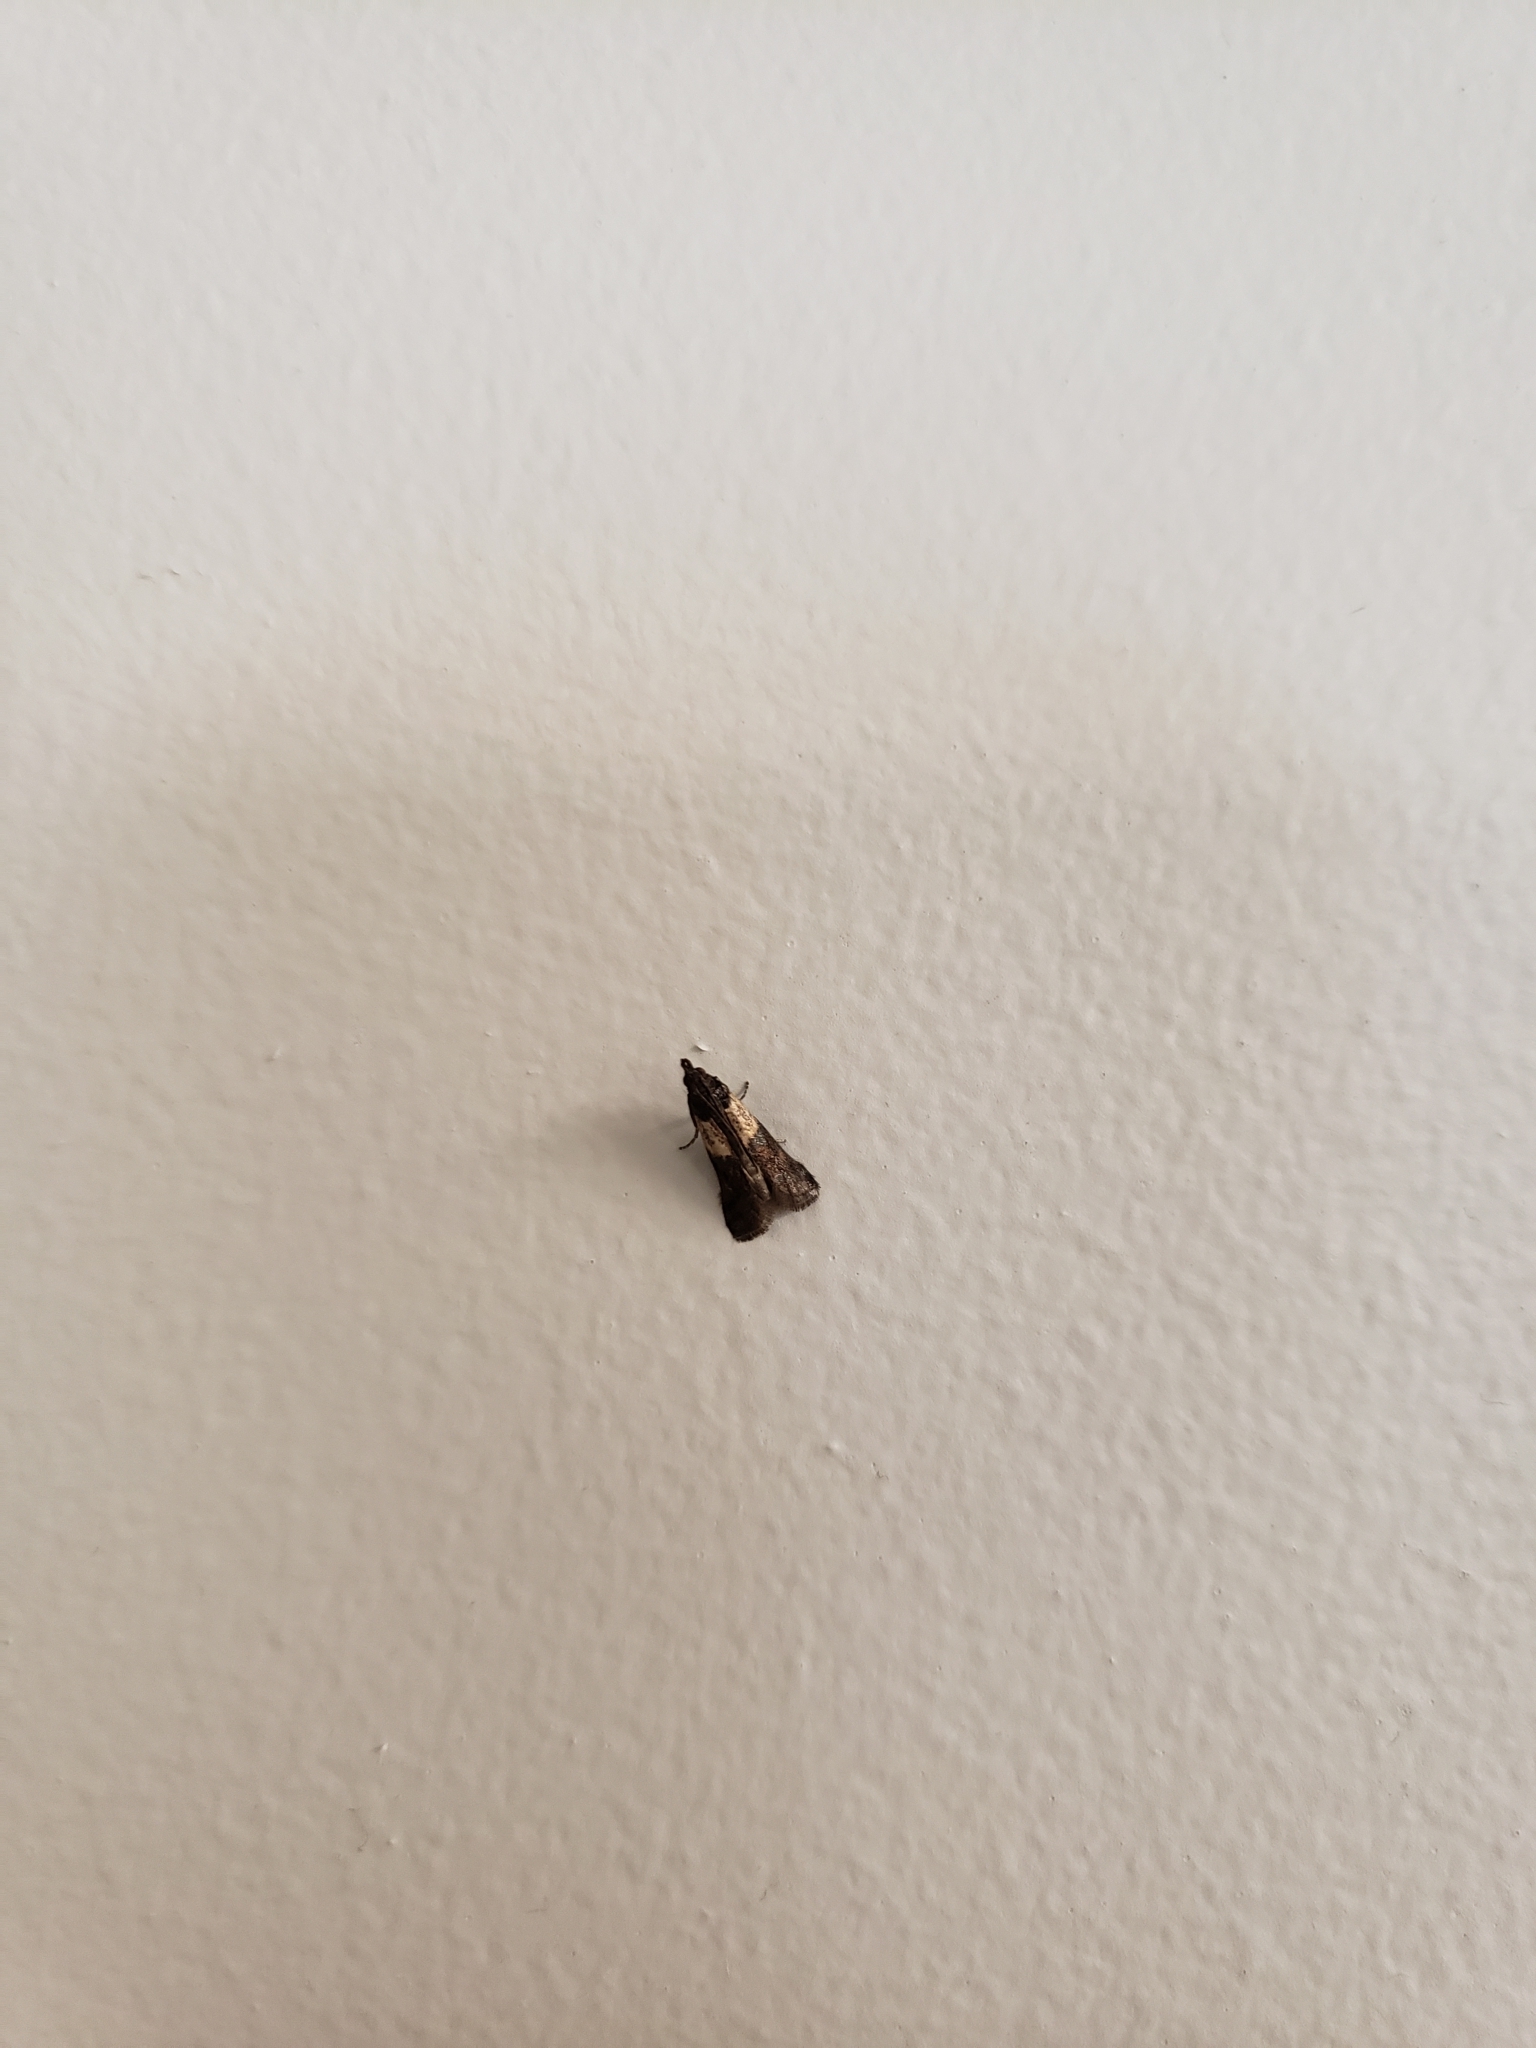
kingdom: Animalia
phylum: Arthropoda
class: Insecta
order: Lepidoptera
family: Pyralidae
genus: Plodia
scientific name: Plodia interpunctella
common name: Indian meal moth
